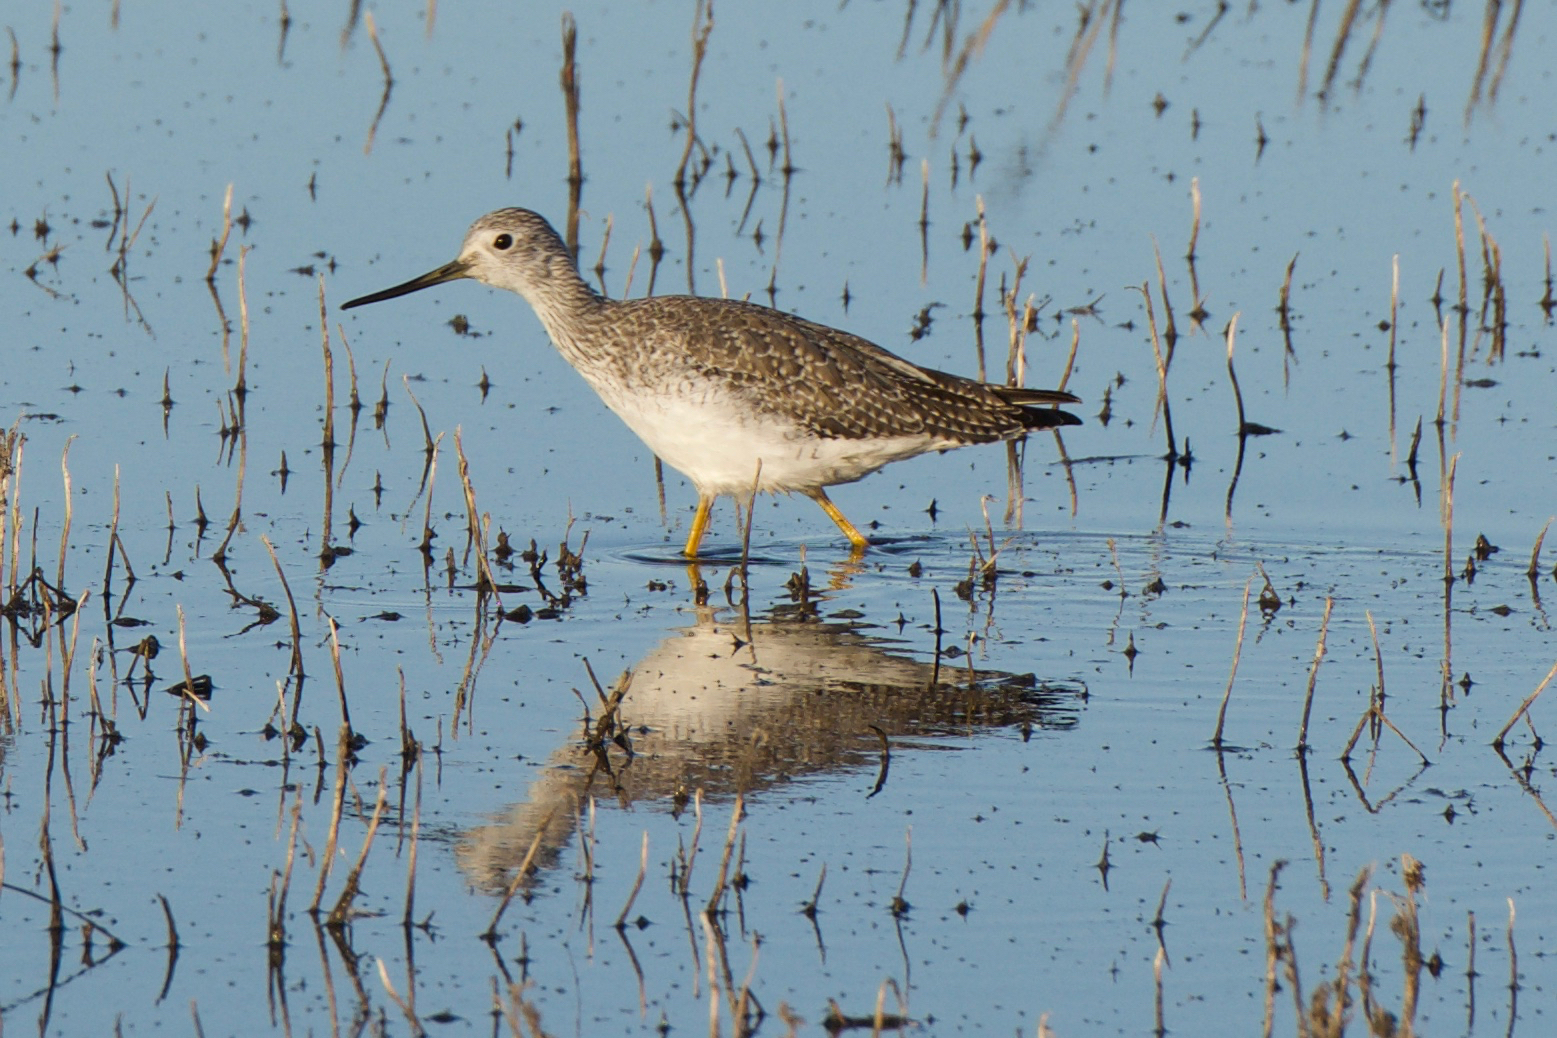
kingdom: Animalia
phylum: Chordata
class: Aves
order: Charadriiformes
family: Scolopacidae
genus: Tringa
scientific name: Tringa melanoleuca
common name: Greater yellowlegs
